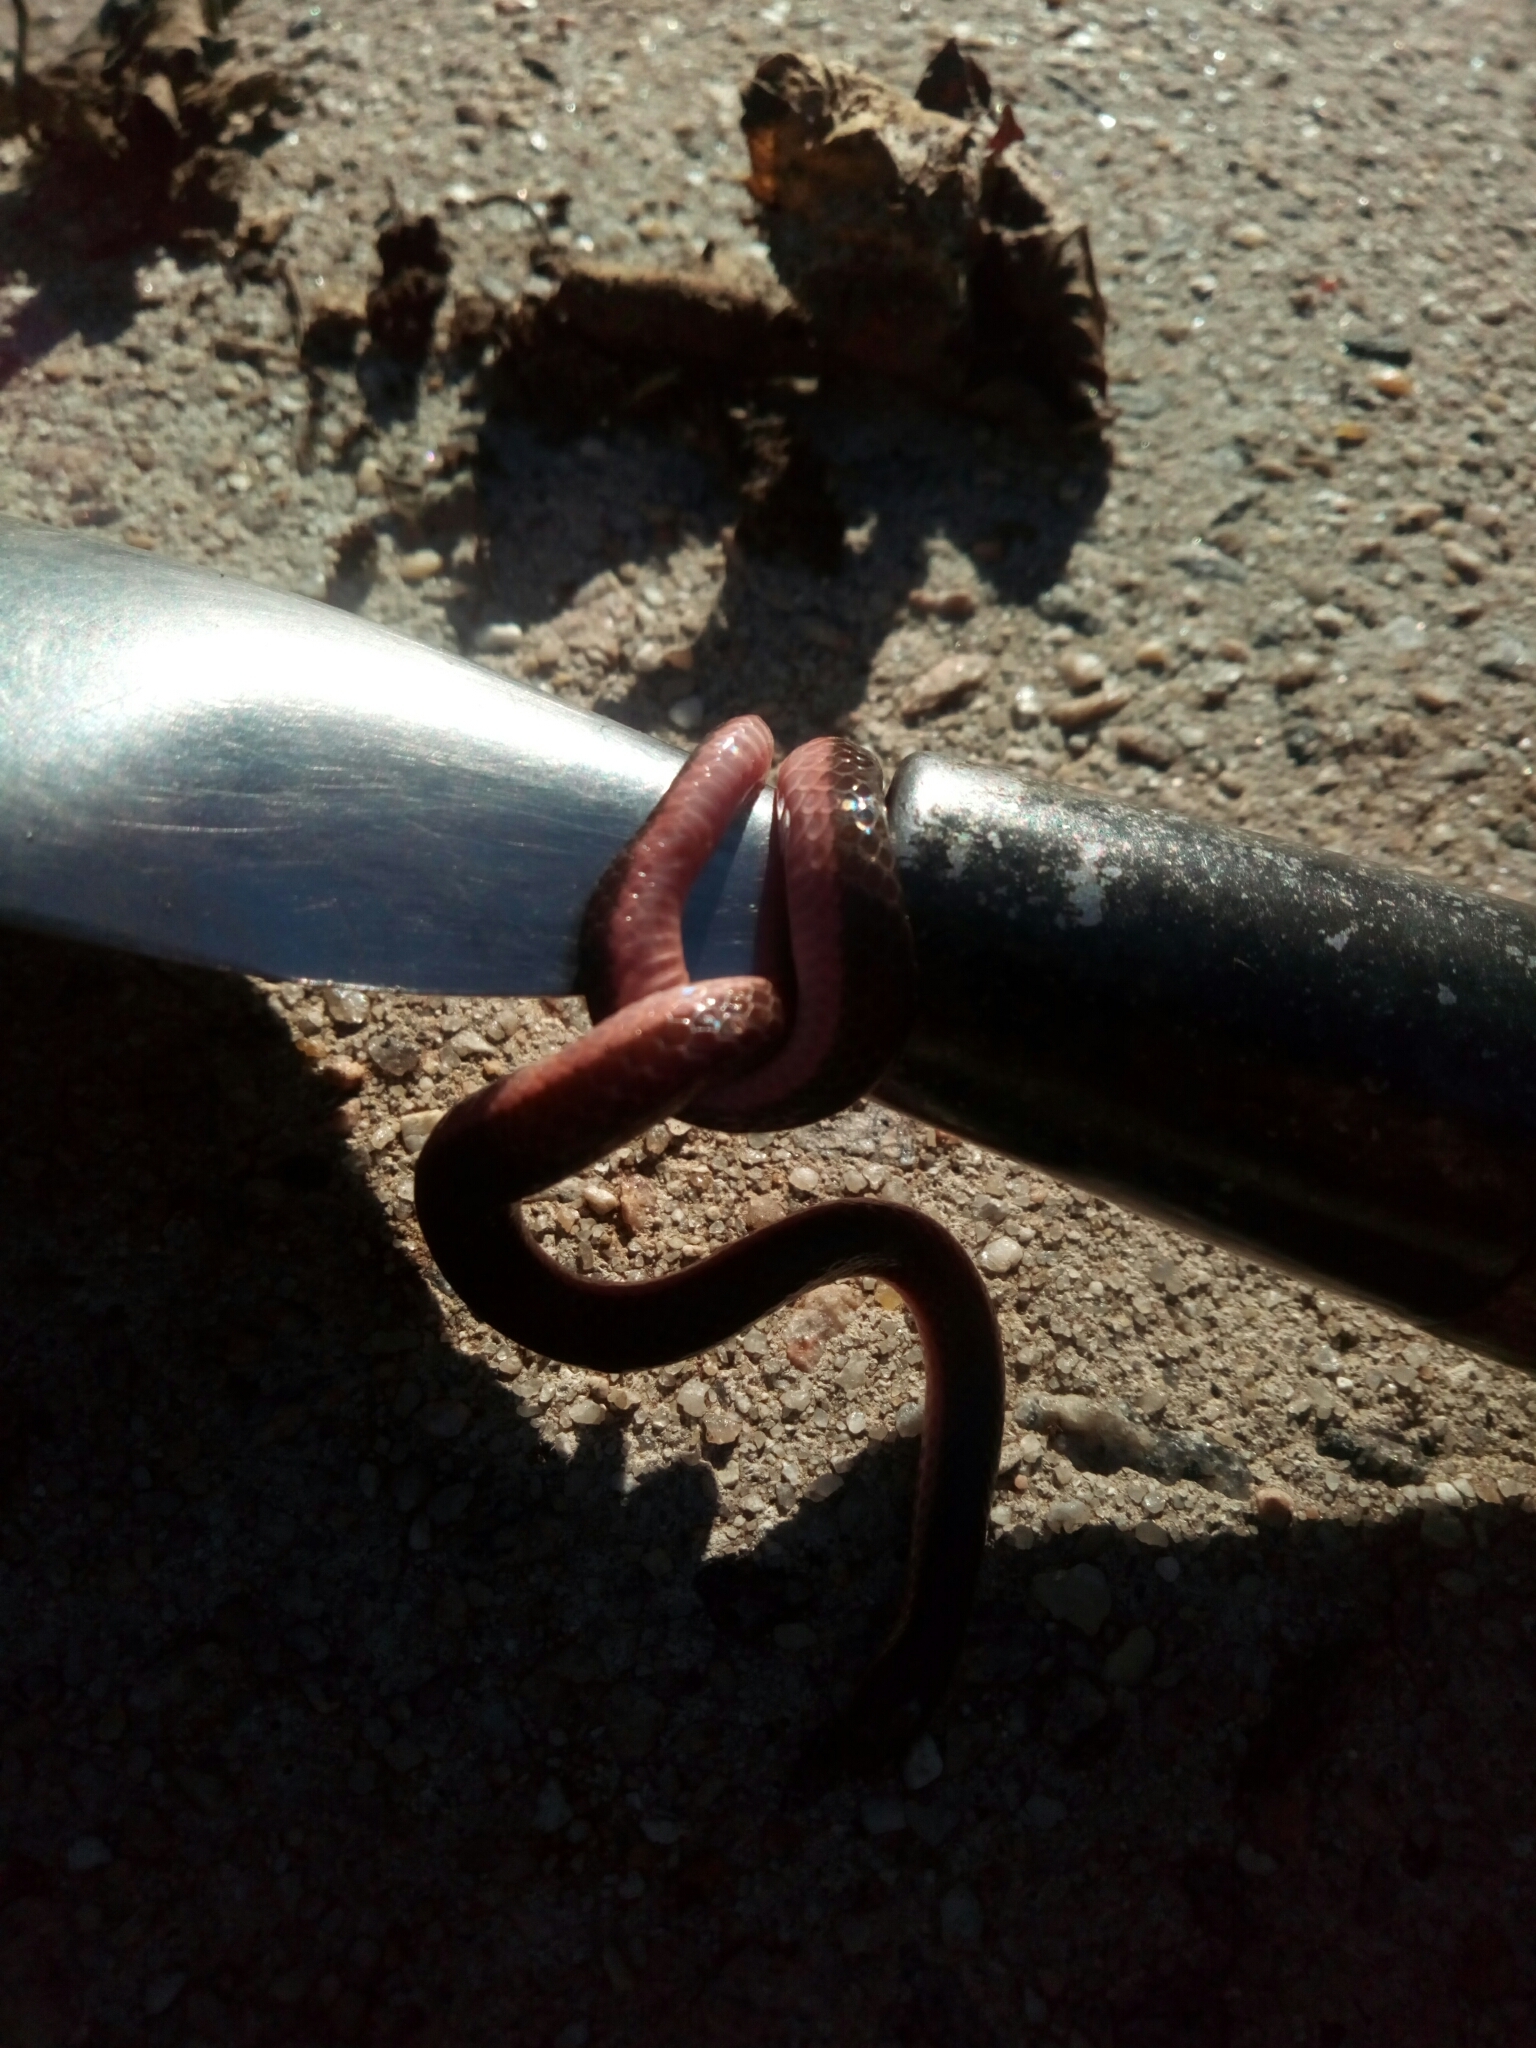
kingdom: Animalia
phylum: Chordata
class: Squamata
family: Colubridae
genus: Carphophis
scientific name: Carphophis amoenus
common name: Eastern worm snake
